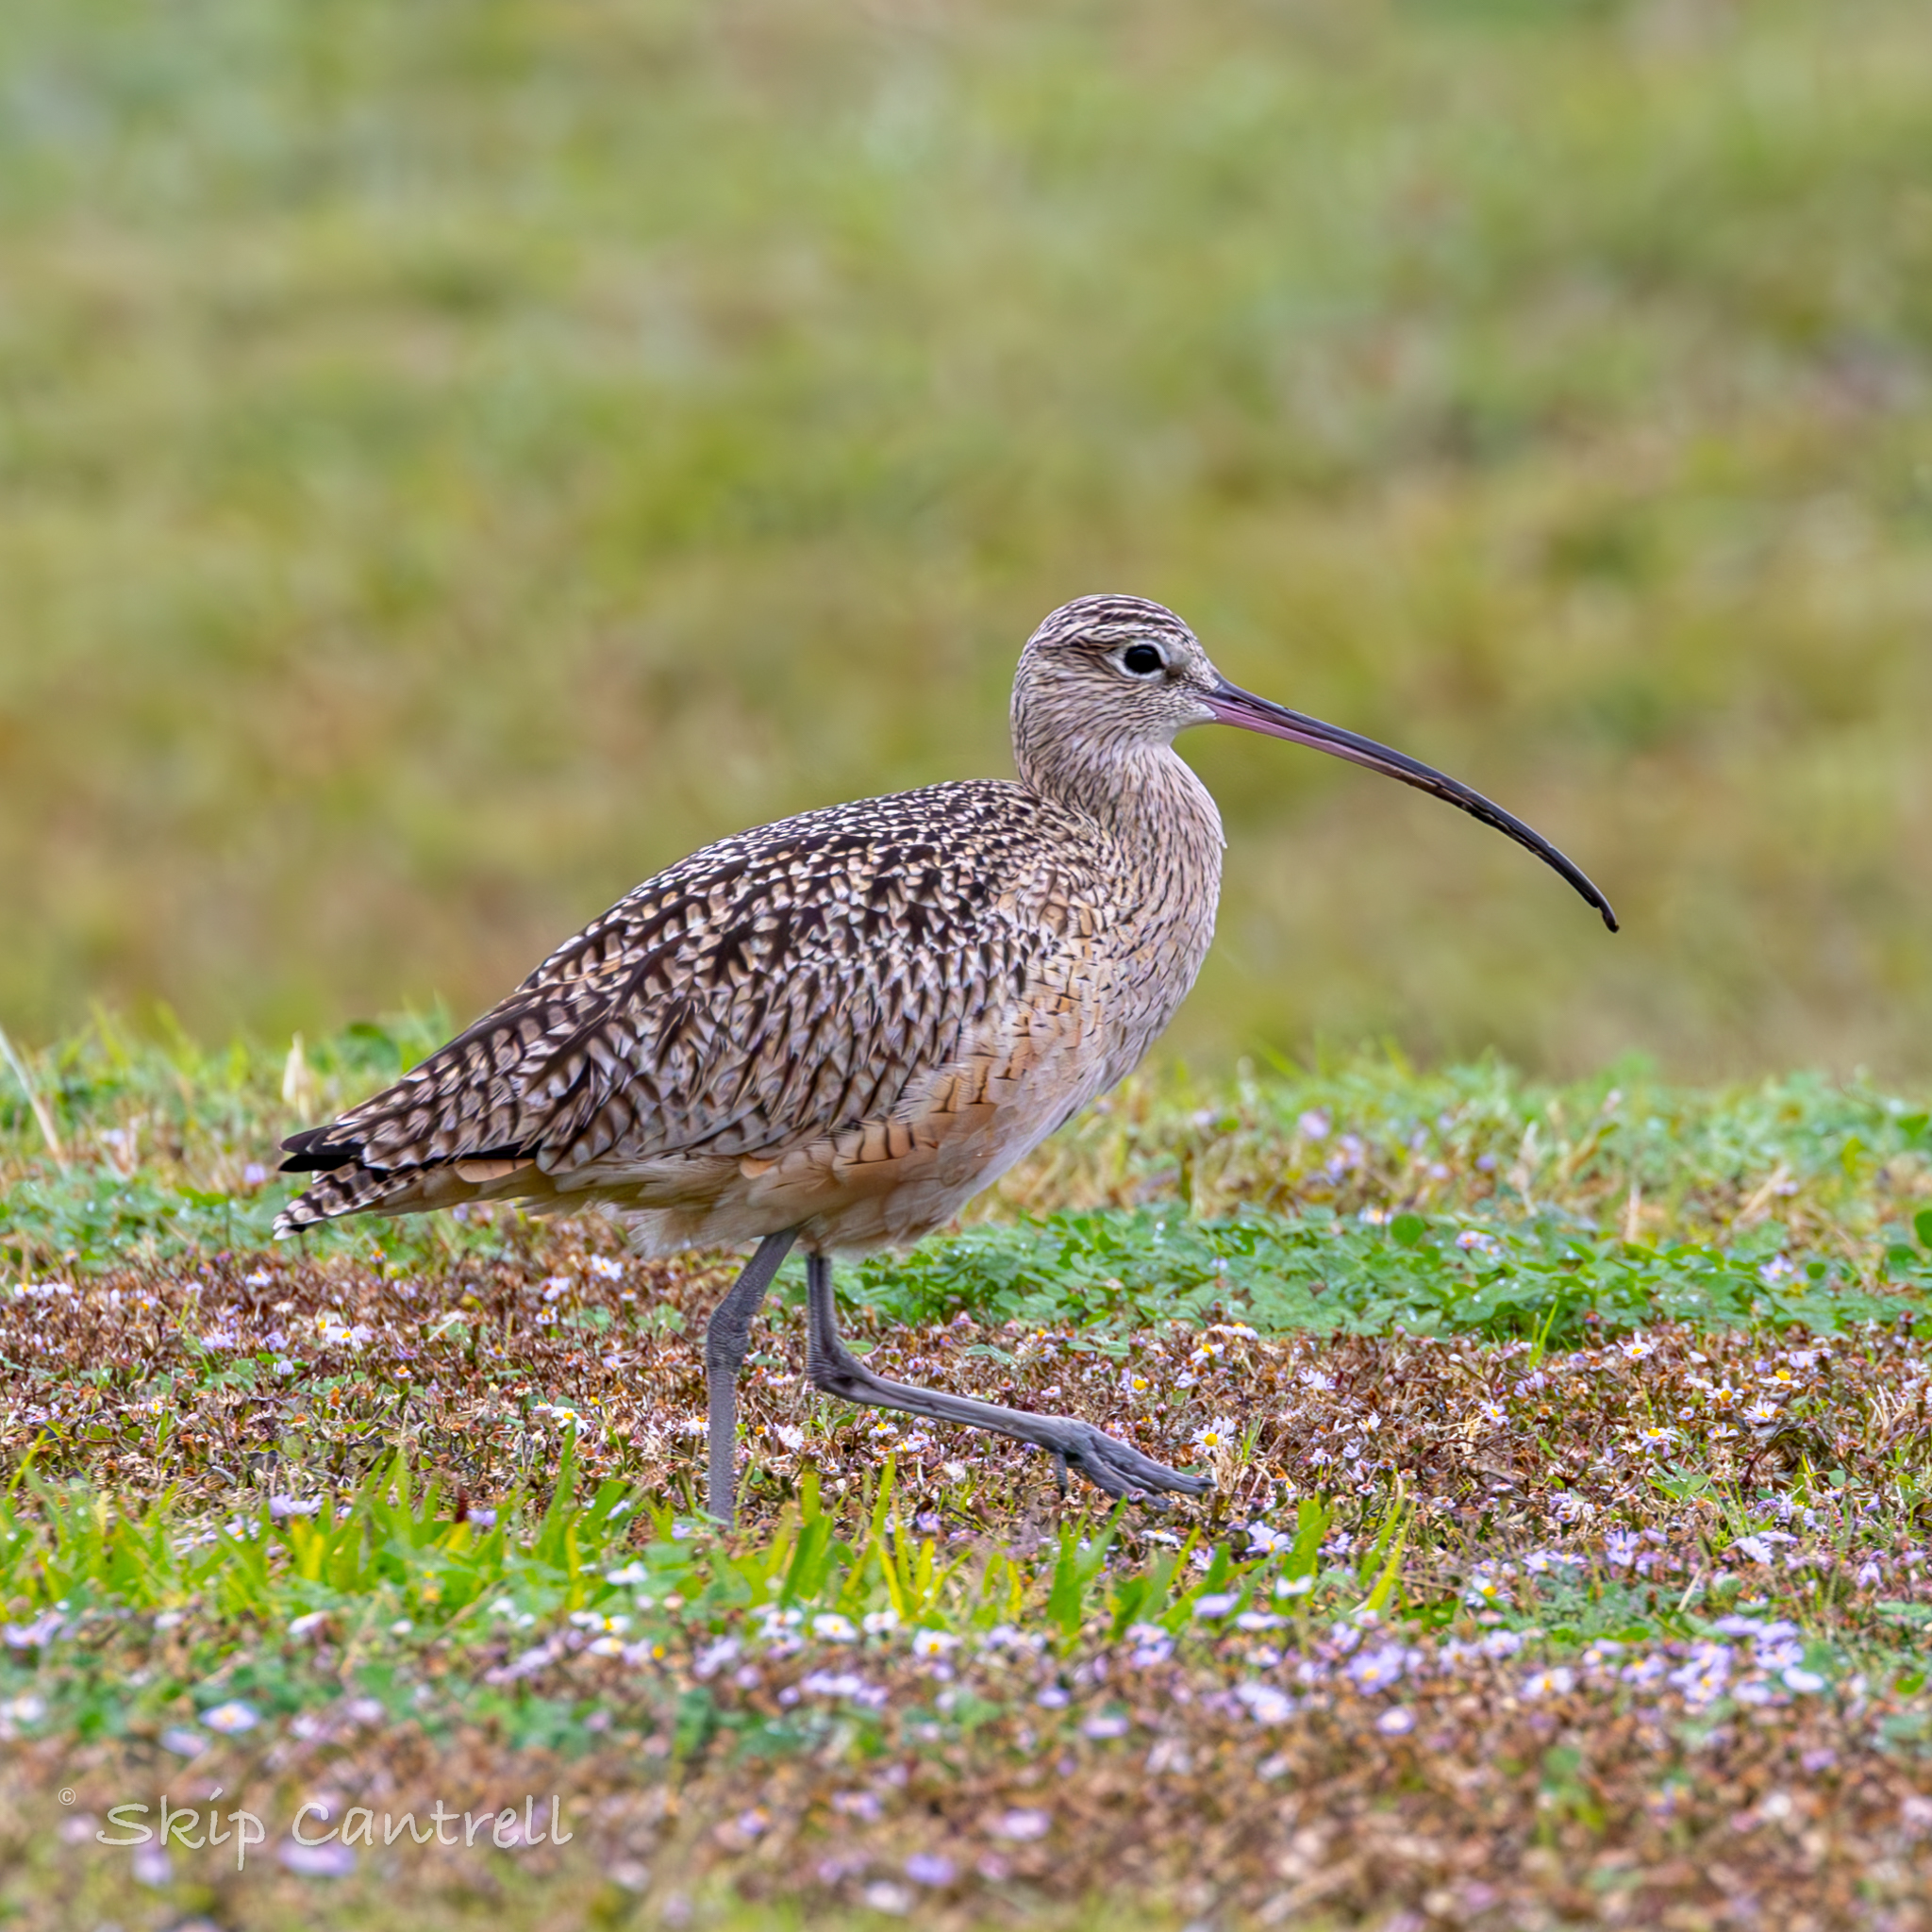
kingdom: Animalia
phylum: Chordata
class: Aves
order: Charadriiformes
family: Scolopacidae
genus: Numenius
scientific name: Numenius americanus
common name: Long-billed curlew
